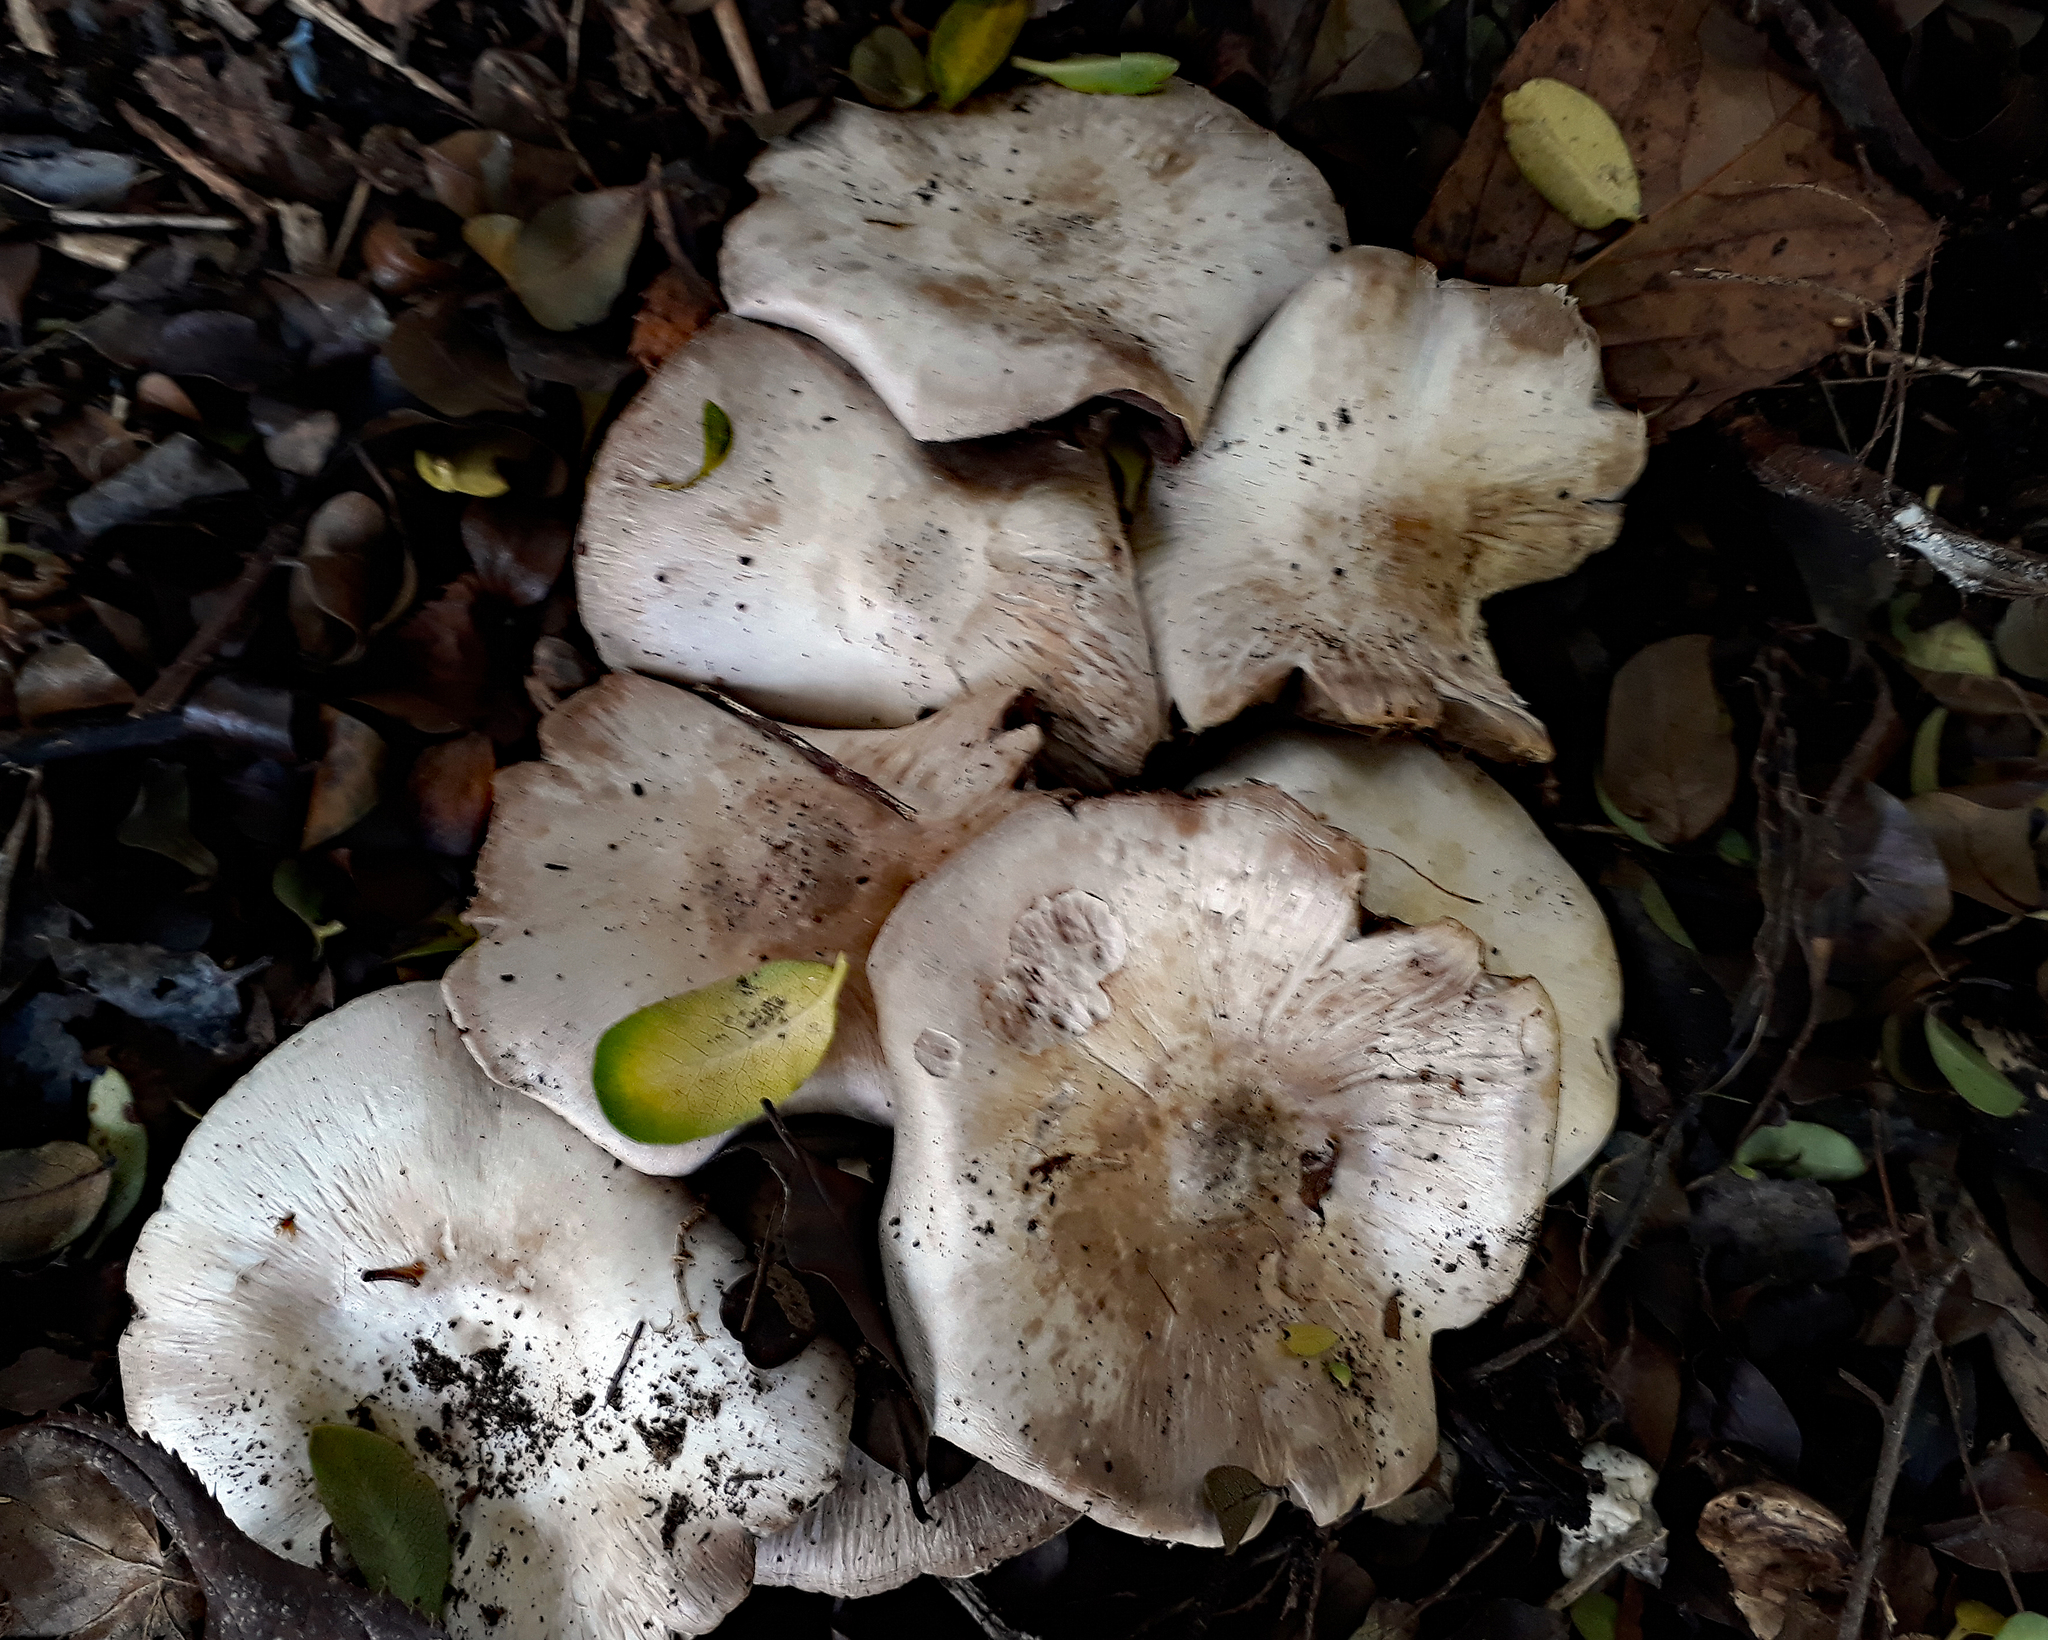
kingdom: Fungi
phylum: Basidiomycota
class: Agaricomycetes
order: Agaricales
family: Agaricaceae
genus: Agaricus
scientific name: Agaricus
